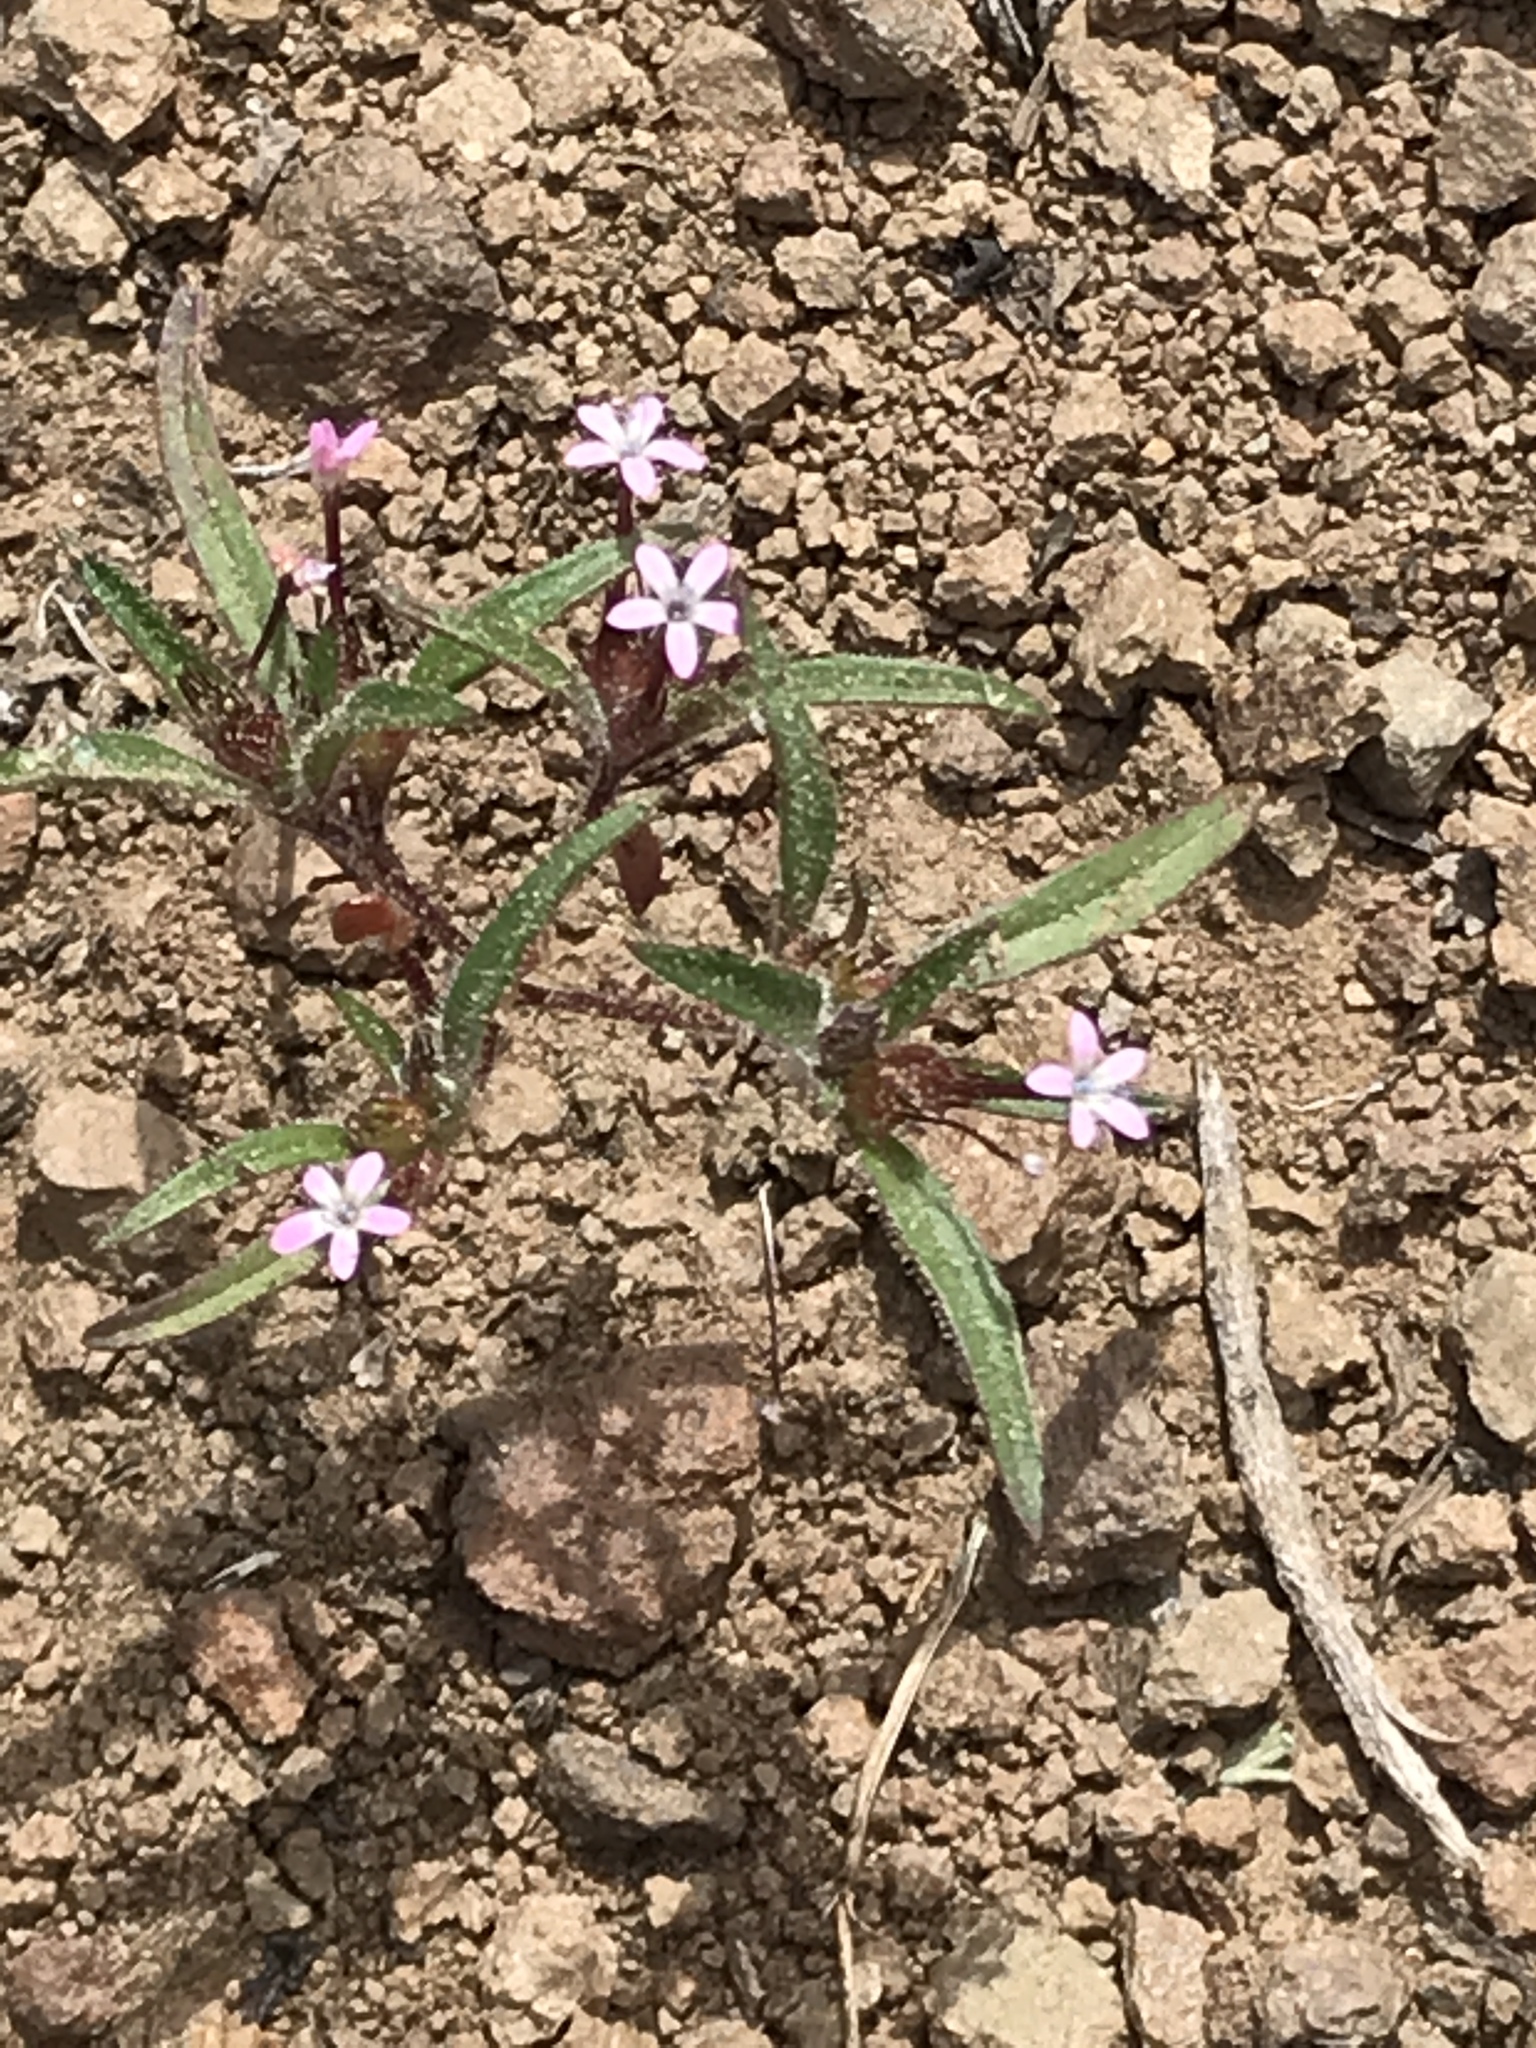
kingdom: Plantae
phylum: Tracheophyta
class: Magnoliopsida
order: Ericales
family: Polemoniaceae
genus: Collomia
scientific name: Collomia tinctoria
